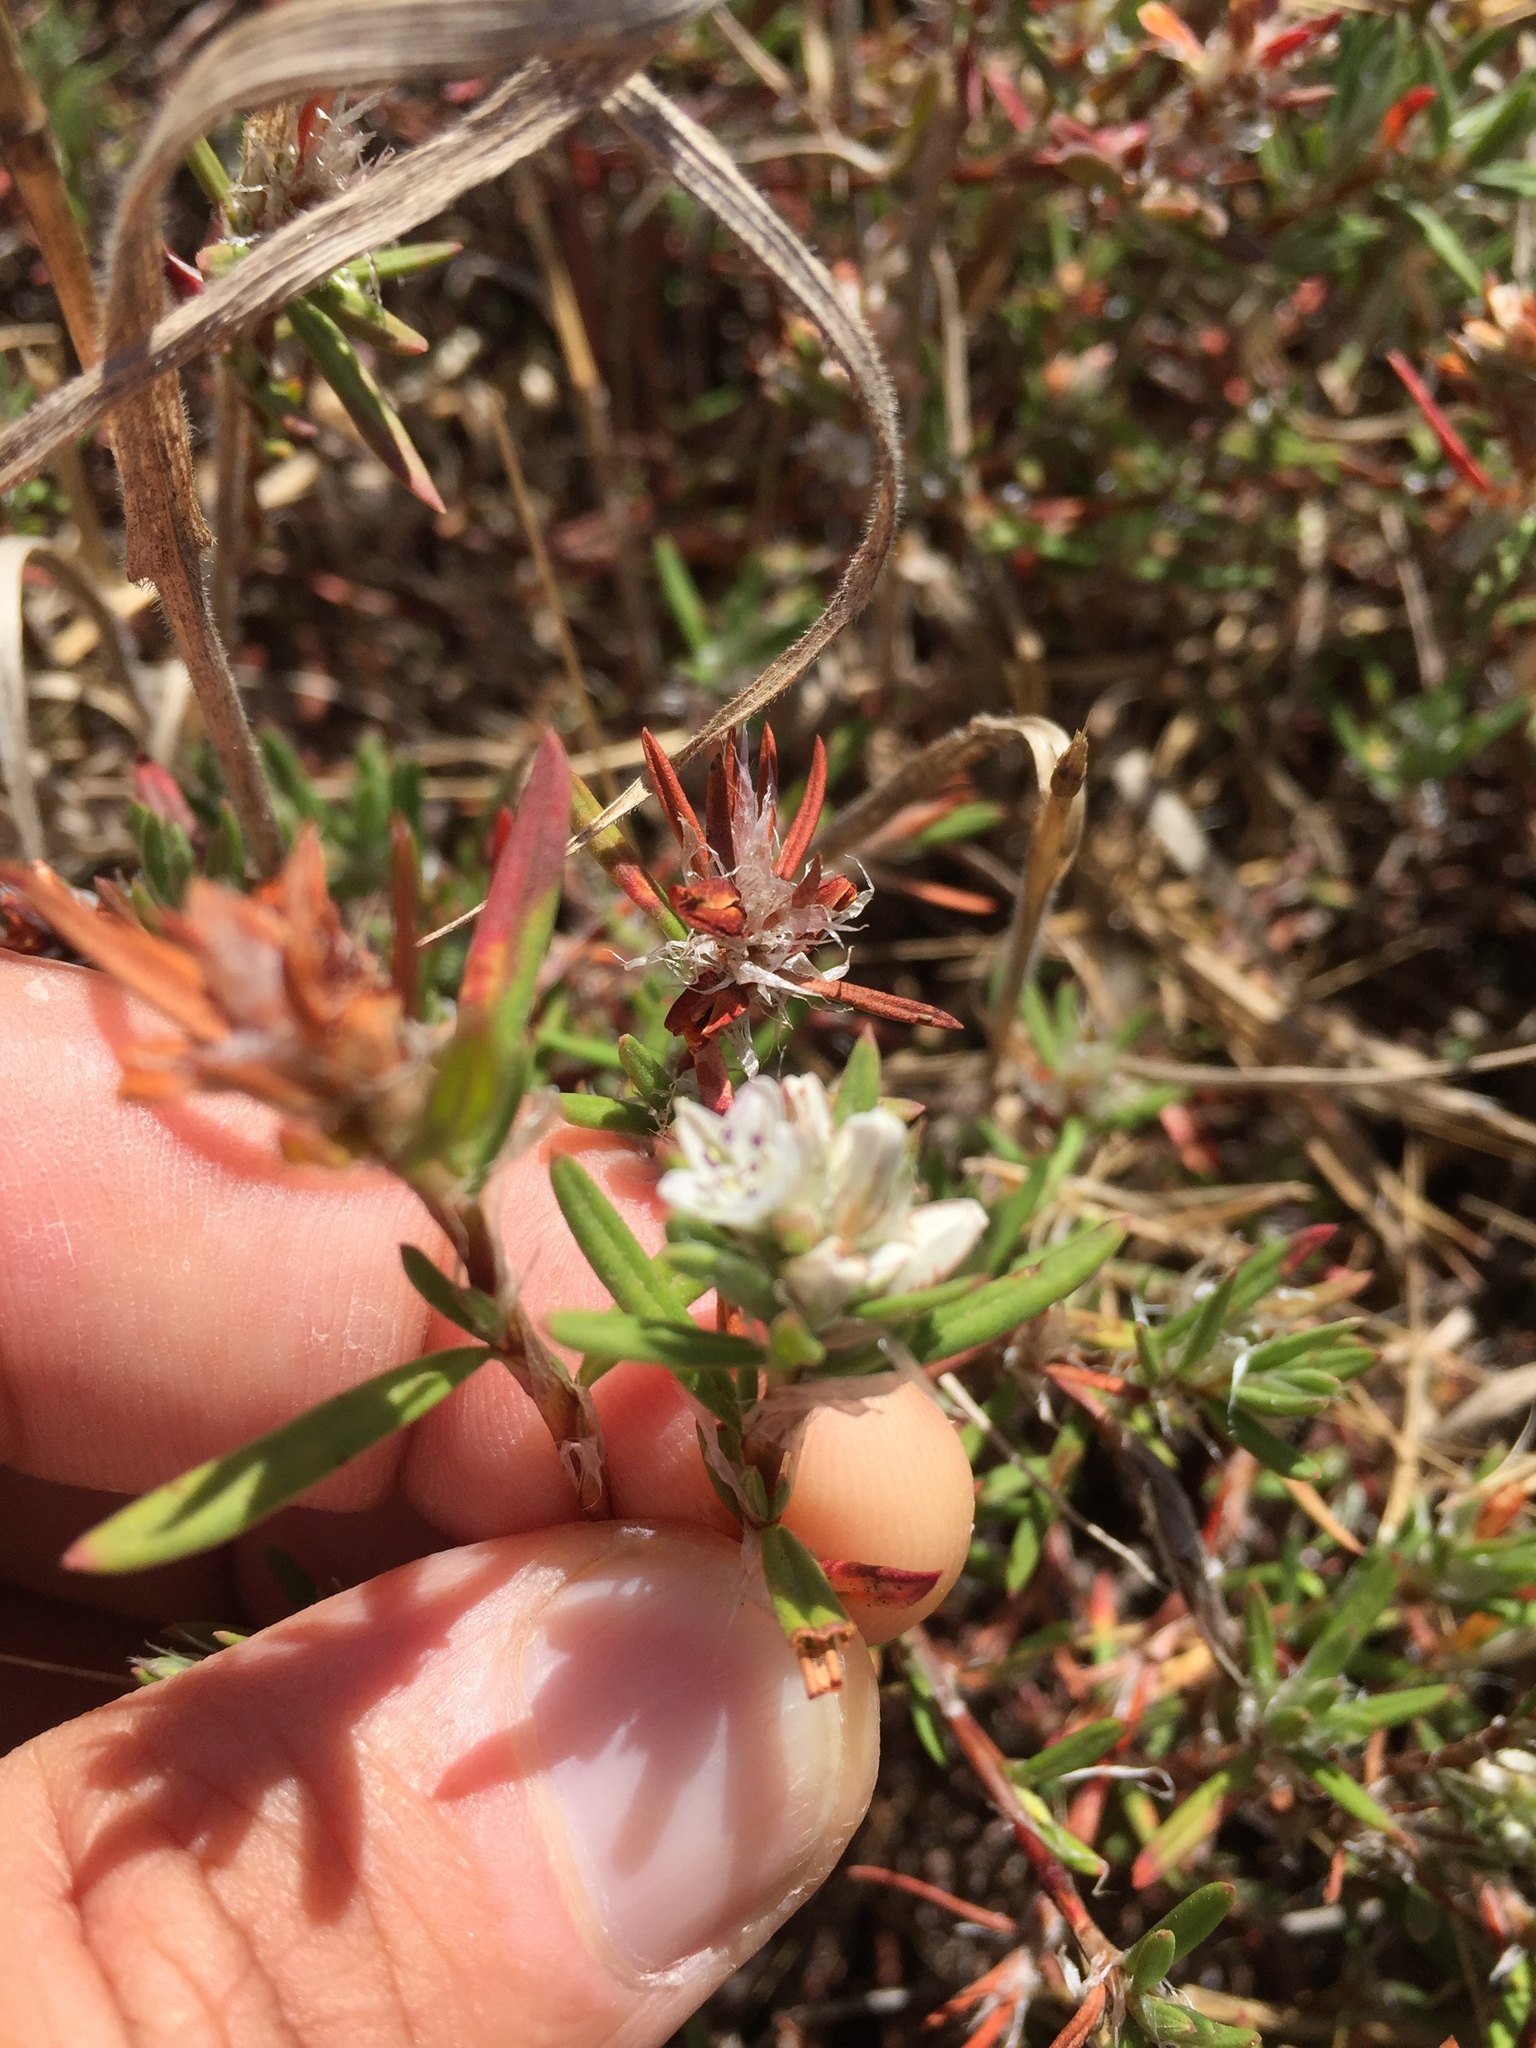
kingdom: Plantae
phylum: Tracheophyta
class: Magnoliopsida
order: Caryophyllales
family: Polygonaceae
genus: Polygonum
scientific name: Polygonum paronychia
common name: Dune knotweed
